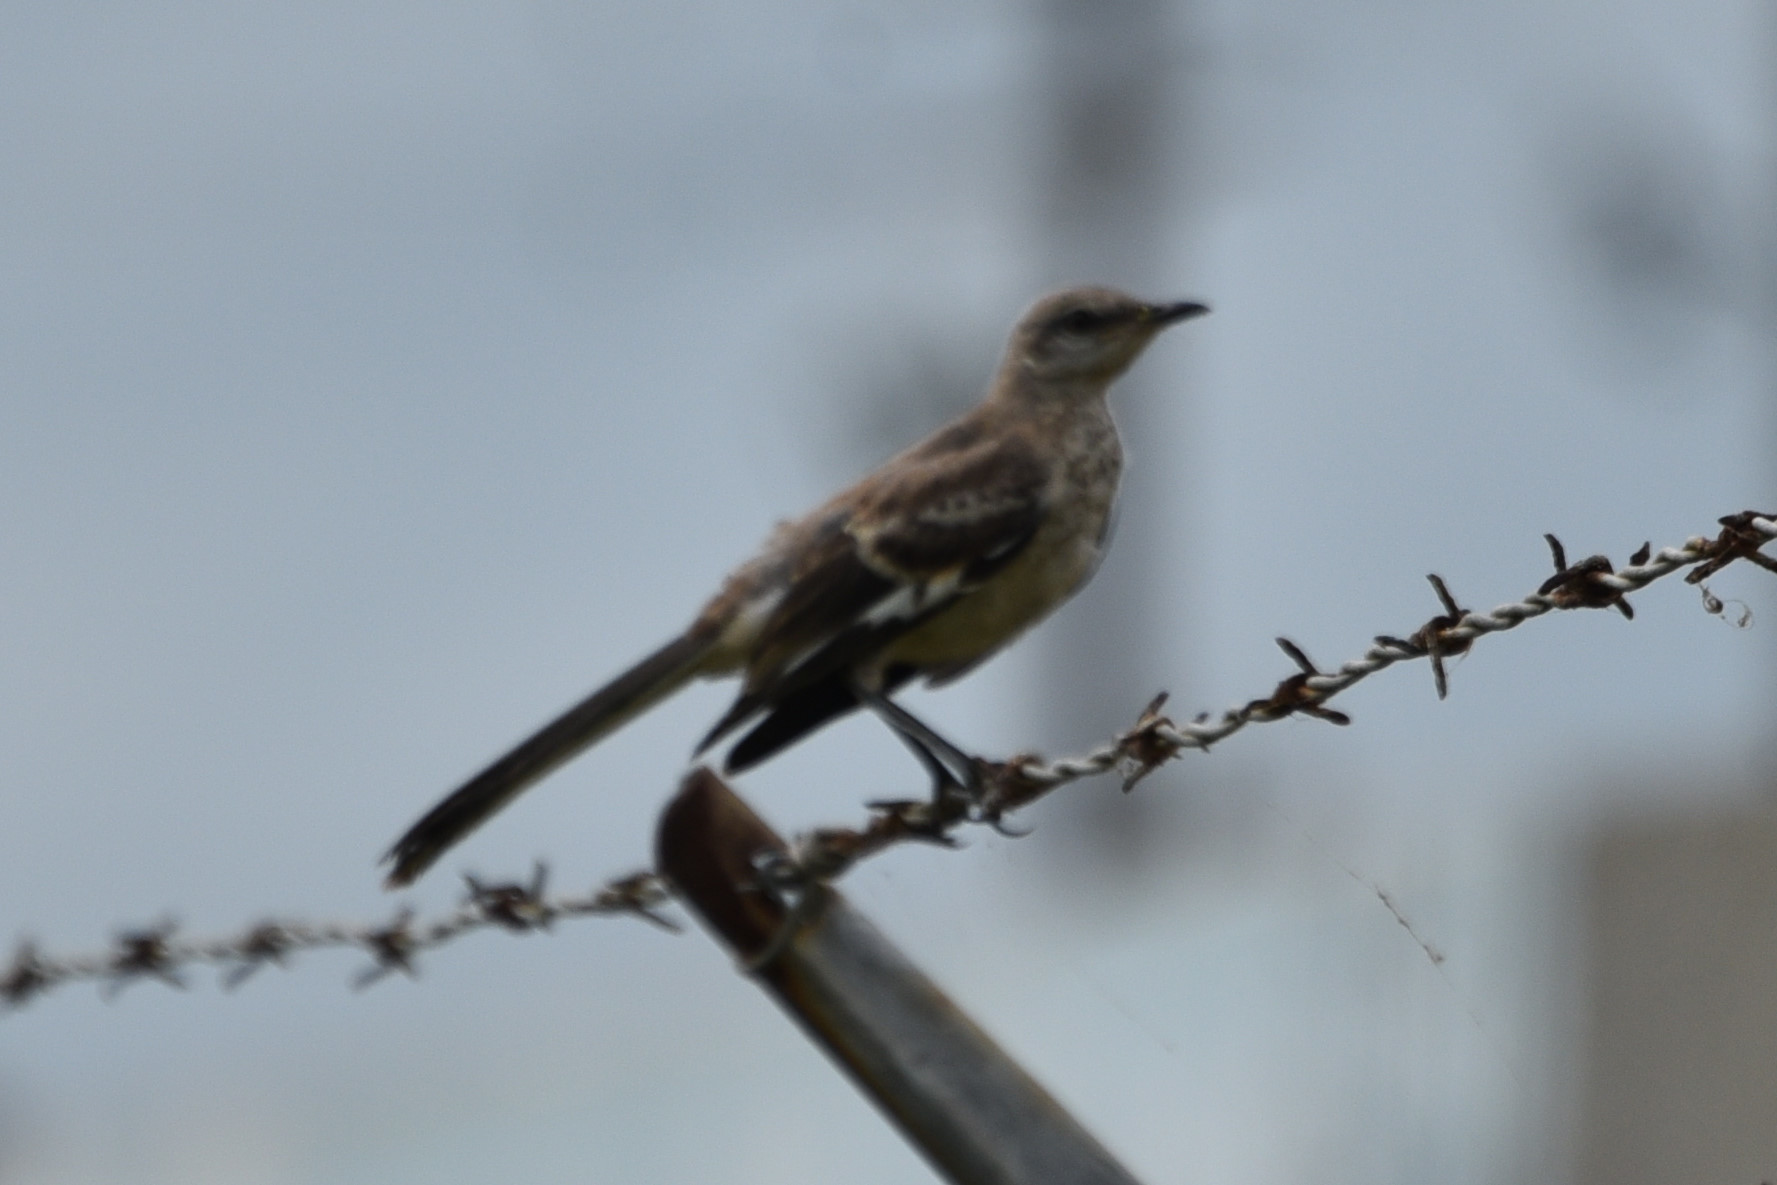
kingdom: Animalia
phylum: Chordata
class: Aves
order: Passeriformes
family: Mimidae
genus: Mimus
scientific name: Mimus polyglottos
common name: Northern mockingbird
